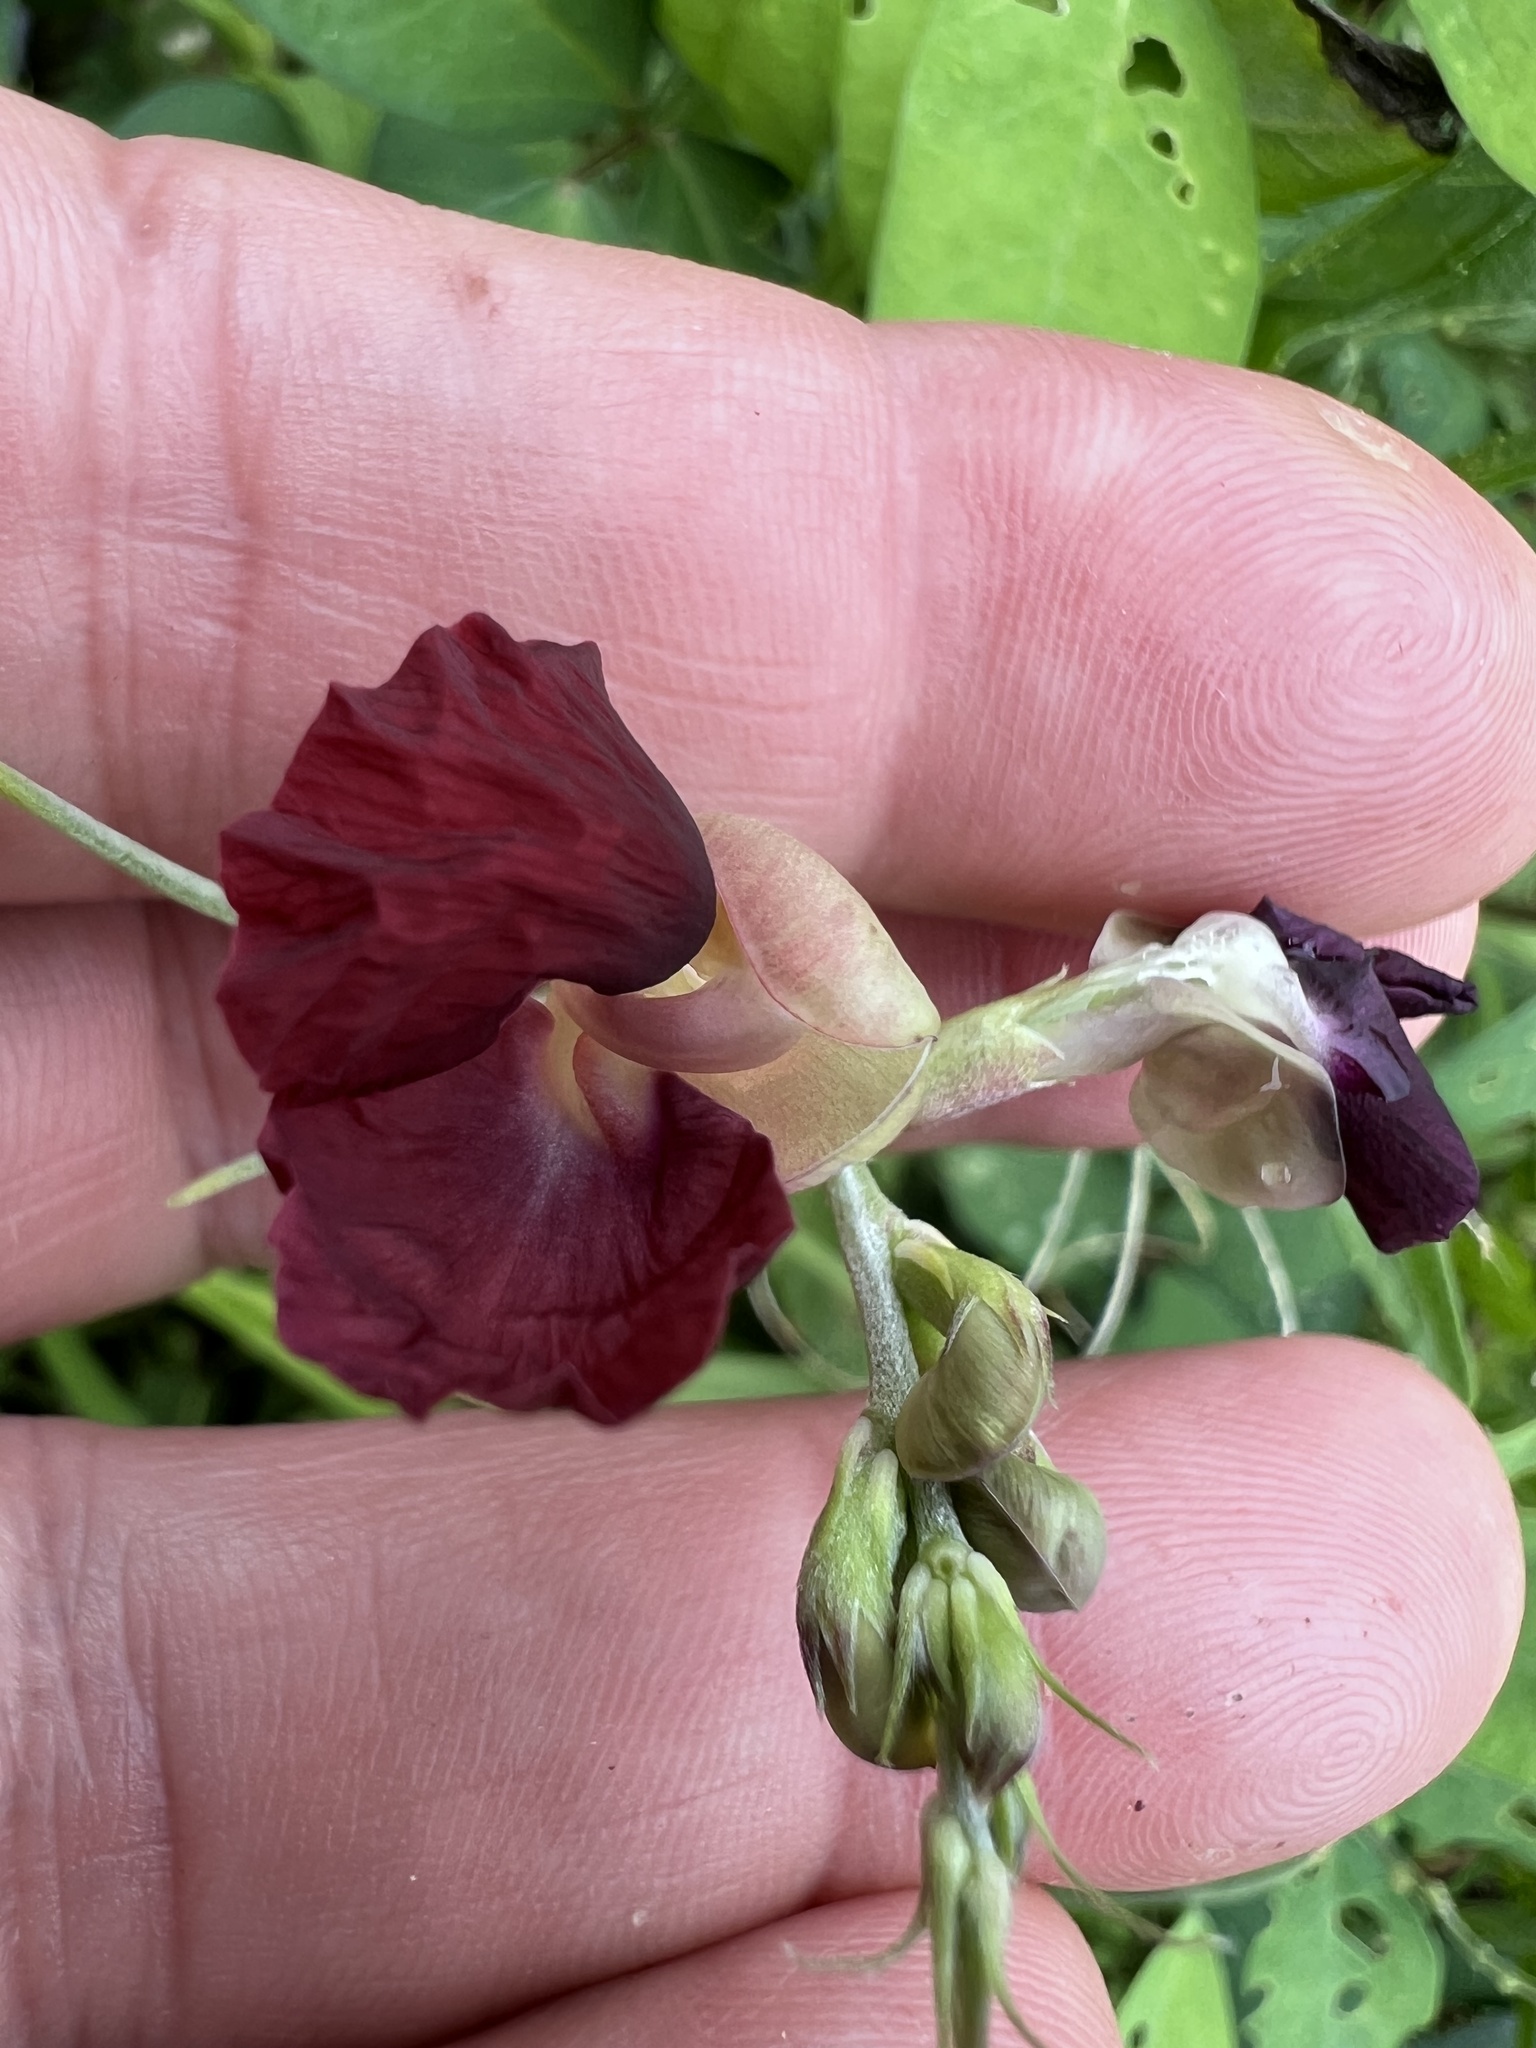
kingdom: Plantae
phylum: Tracheophyta
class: Magnoliopsida
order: Fabales
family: Fabaceae
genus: Macroptilium
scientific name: Macroptilium atropurpureum
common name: Purple bushbean
